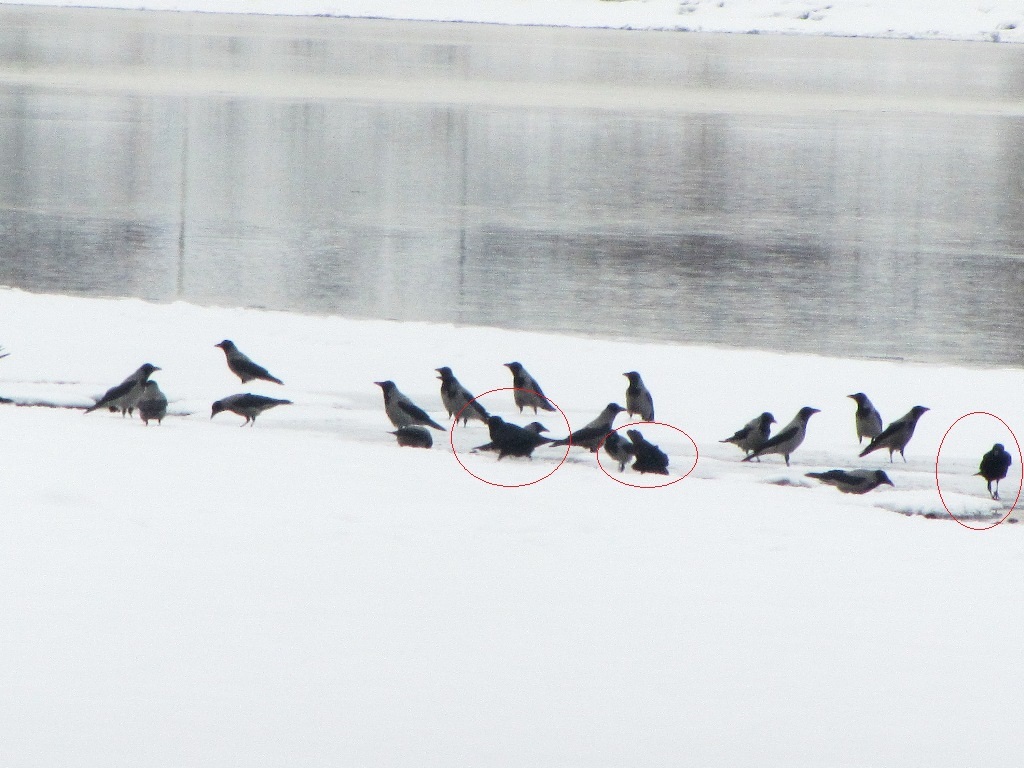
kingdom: Animalia
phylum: Chordata
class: Aves
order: Passeriformes
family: Corvidae
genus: Corvus
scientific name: Corvus corone
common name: Carrion crow
